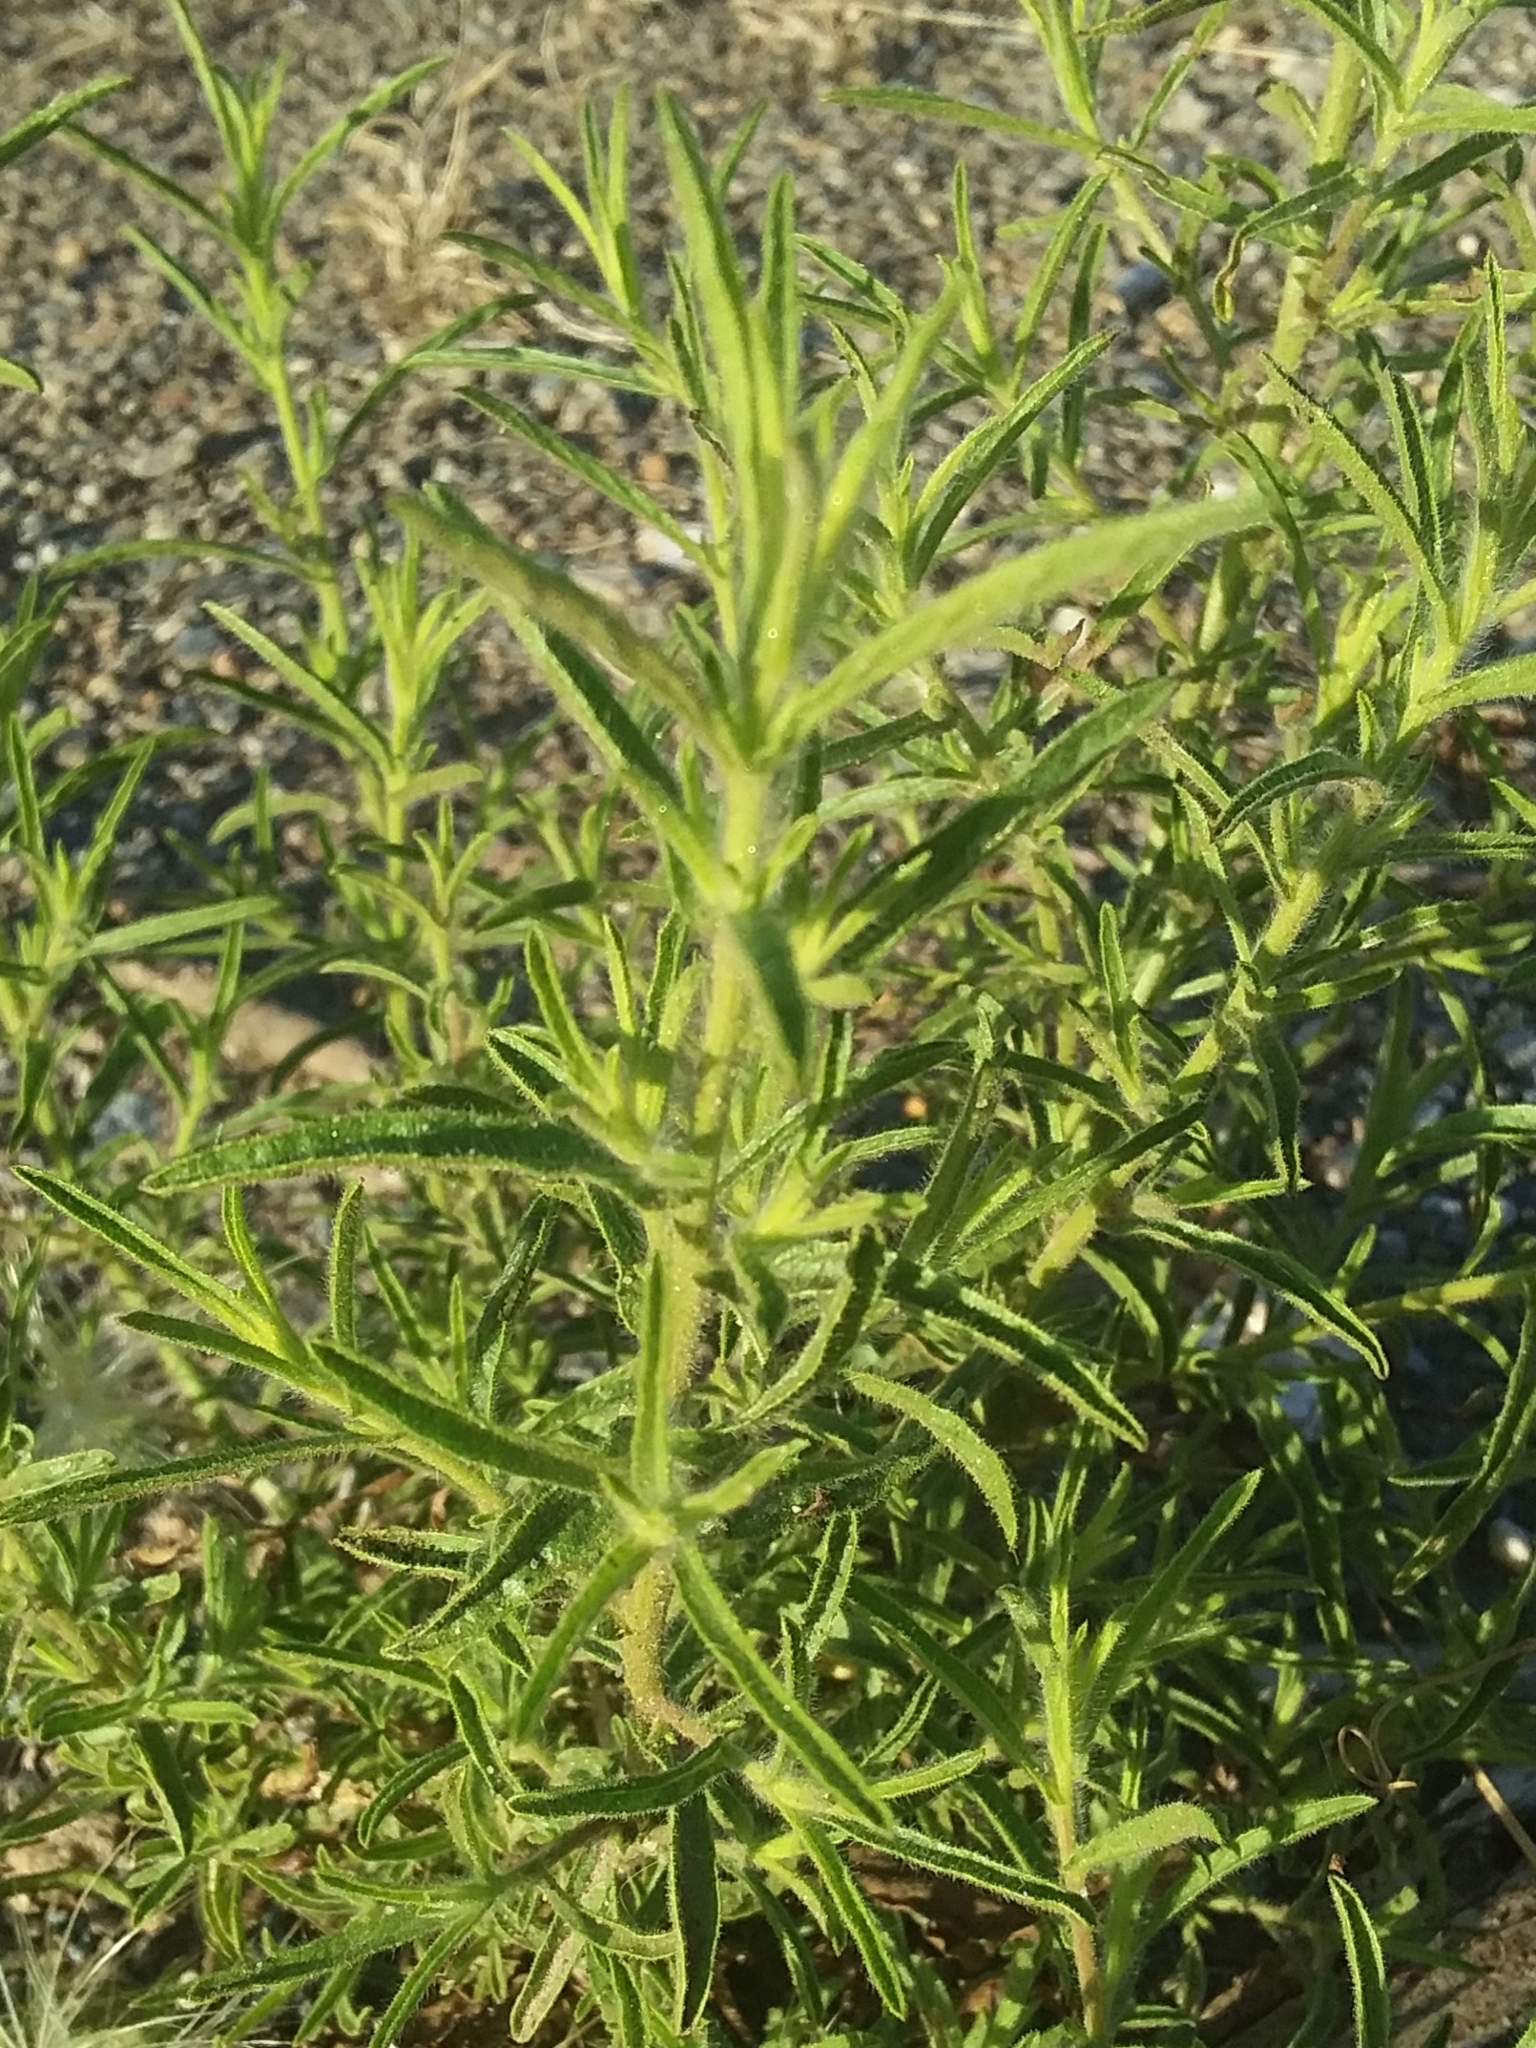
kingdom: Plantae
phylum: Tracheophyta
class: Magnoliopsida
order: Asterales
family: Asteraceae
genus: Dittrichia
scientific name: Dittrichia graveolens
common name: Stinking fleabane
